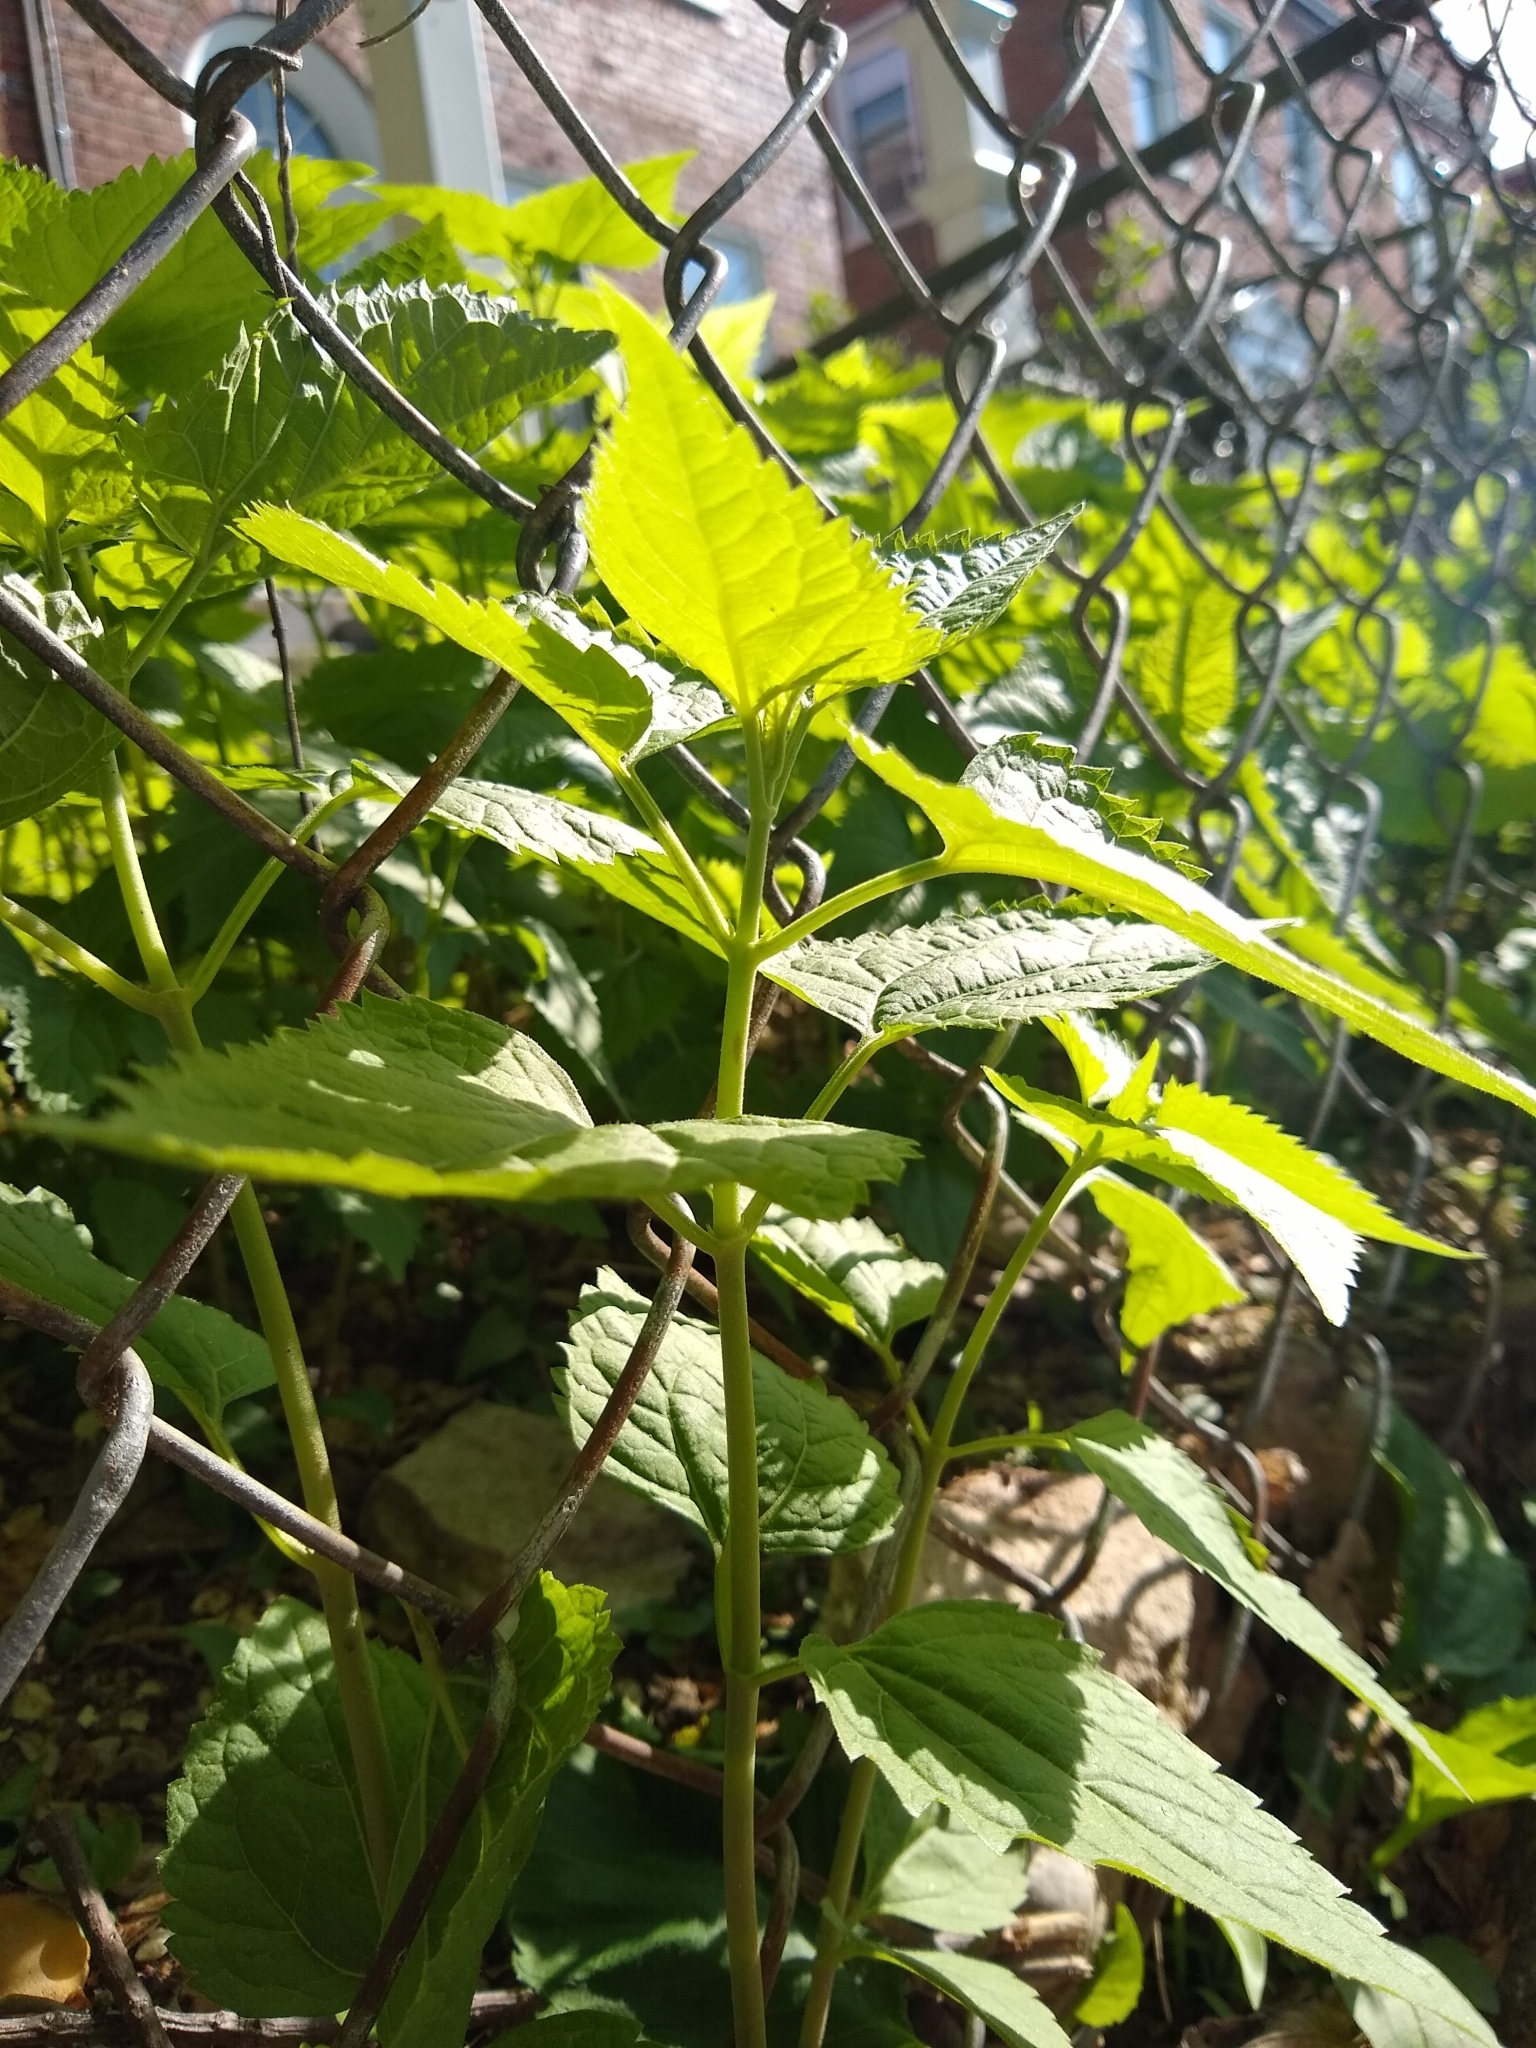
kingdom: Plantae
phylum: Tracheophyta
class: Magnoliopsida
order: Asterales
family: Asteraceae
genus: Ageratina
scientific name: Ageratina altissima
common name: White snakeroot
